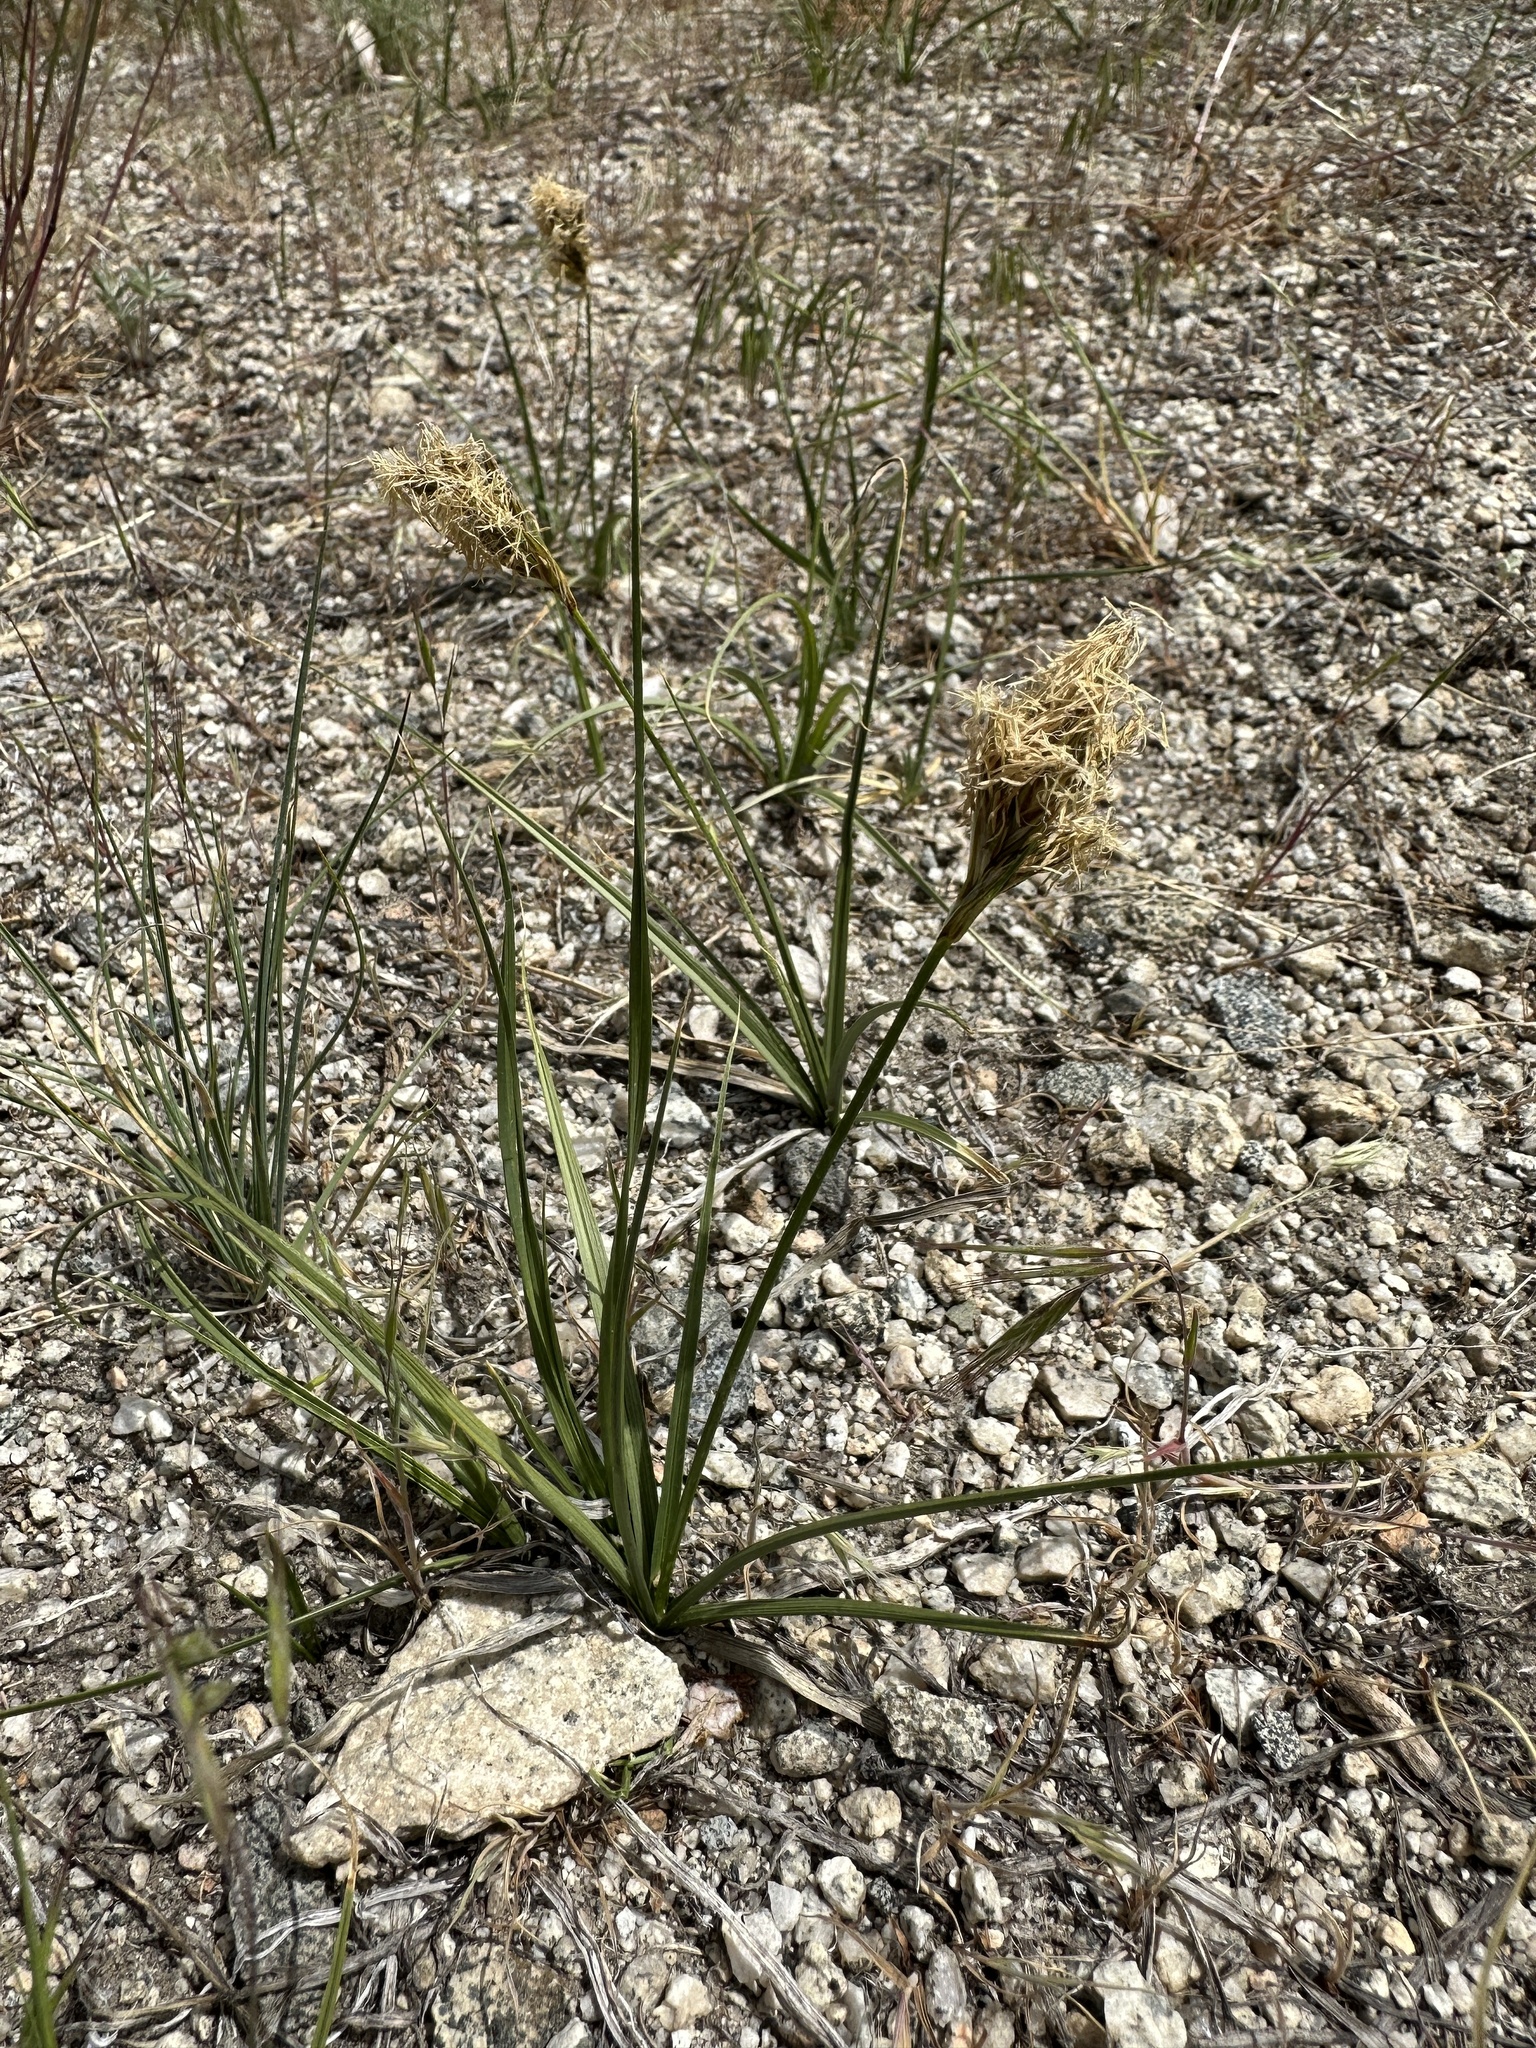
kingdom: Plantae
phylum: Tracheophyta
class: Liliopsida
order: Poales
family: Cyperaceae
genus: Carex
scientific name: Carex douglasii
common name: Douglas' sedge
